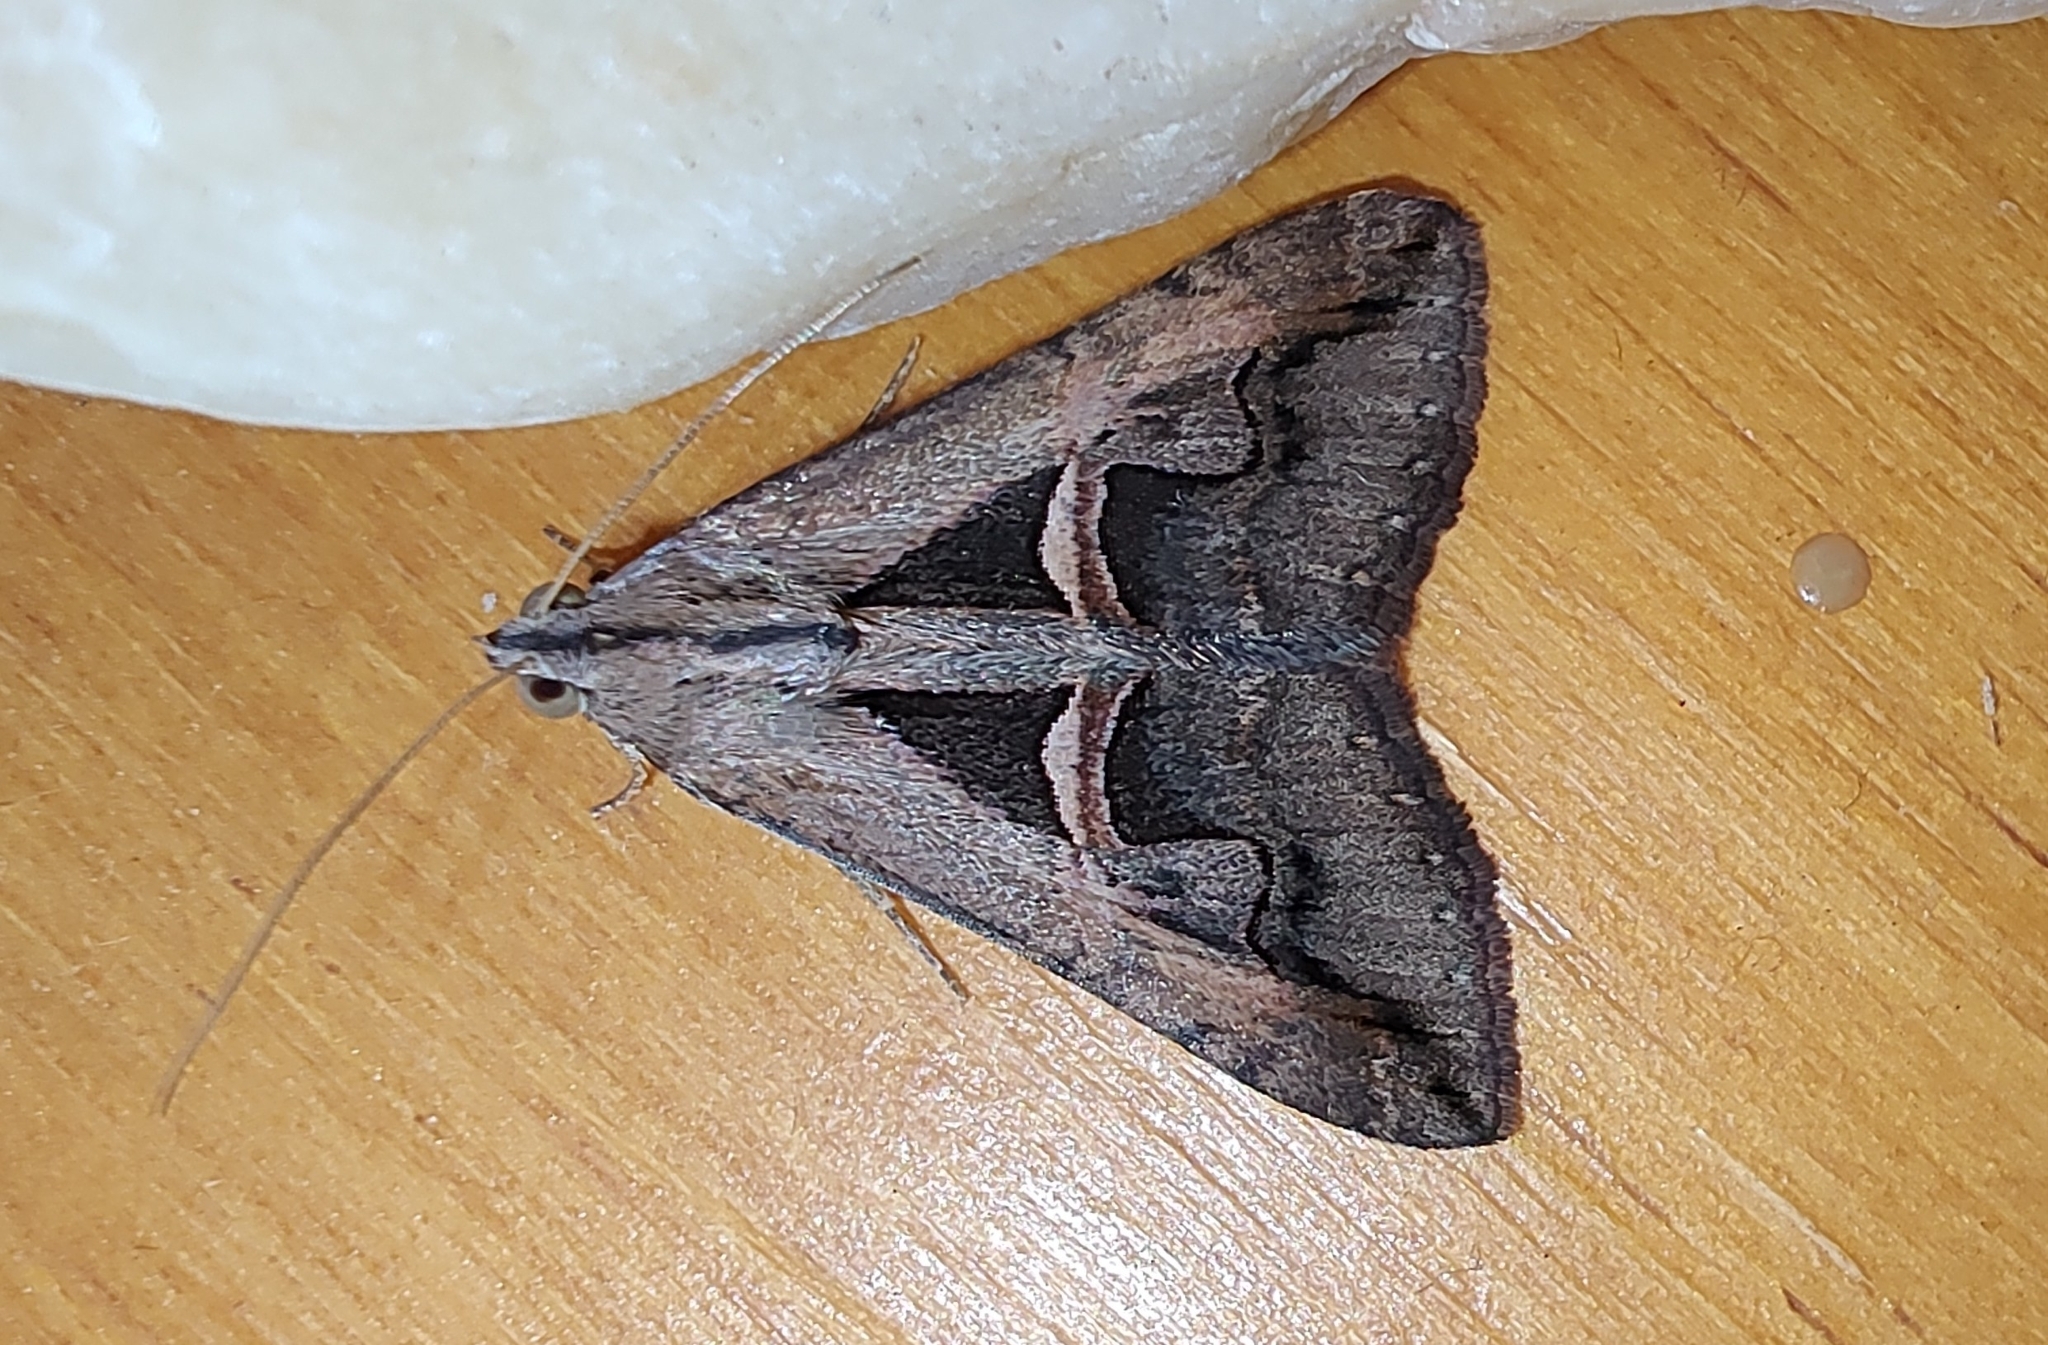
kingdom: Animalia
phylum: Arthropoda
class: Insecta
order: Lepidoptera
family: Erebidae
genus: Melipotis
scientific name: Melipotis cellaris
